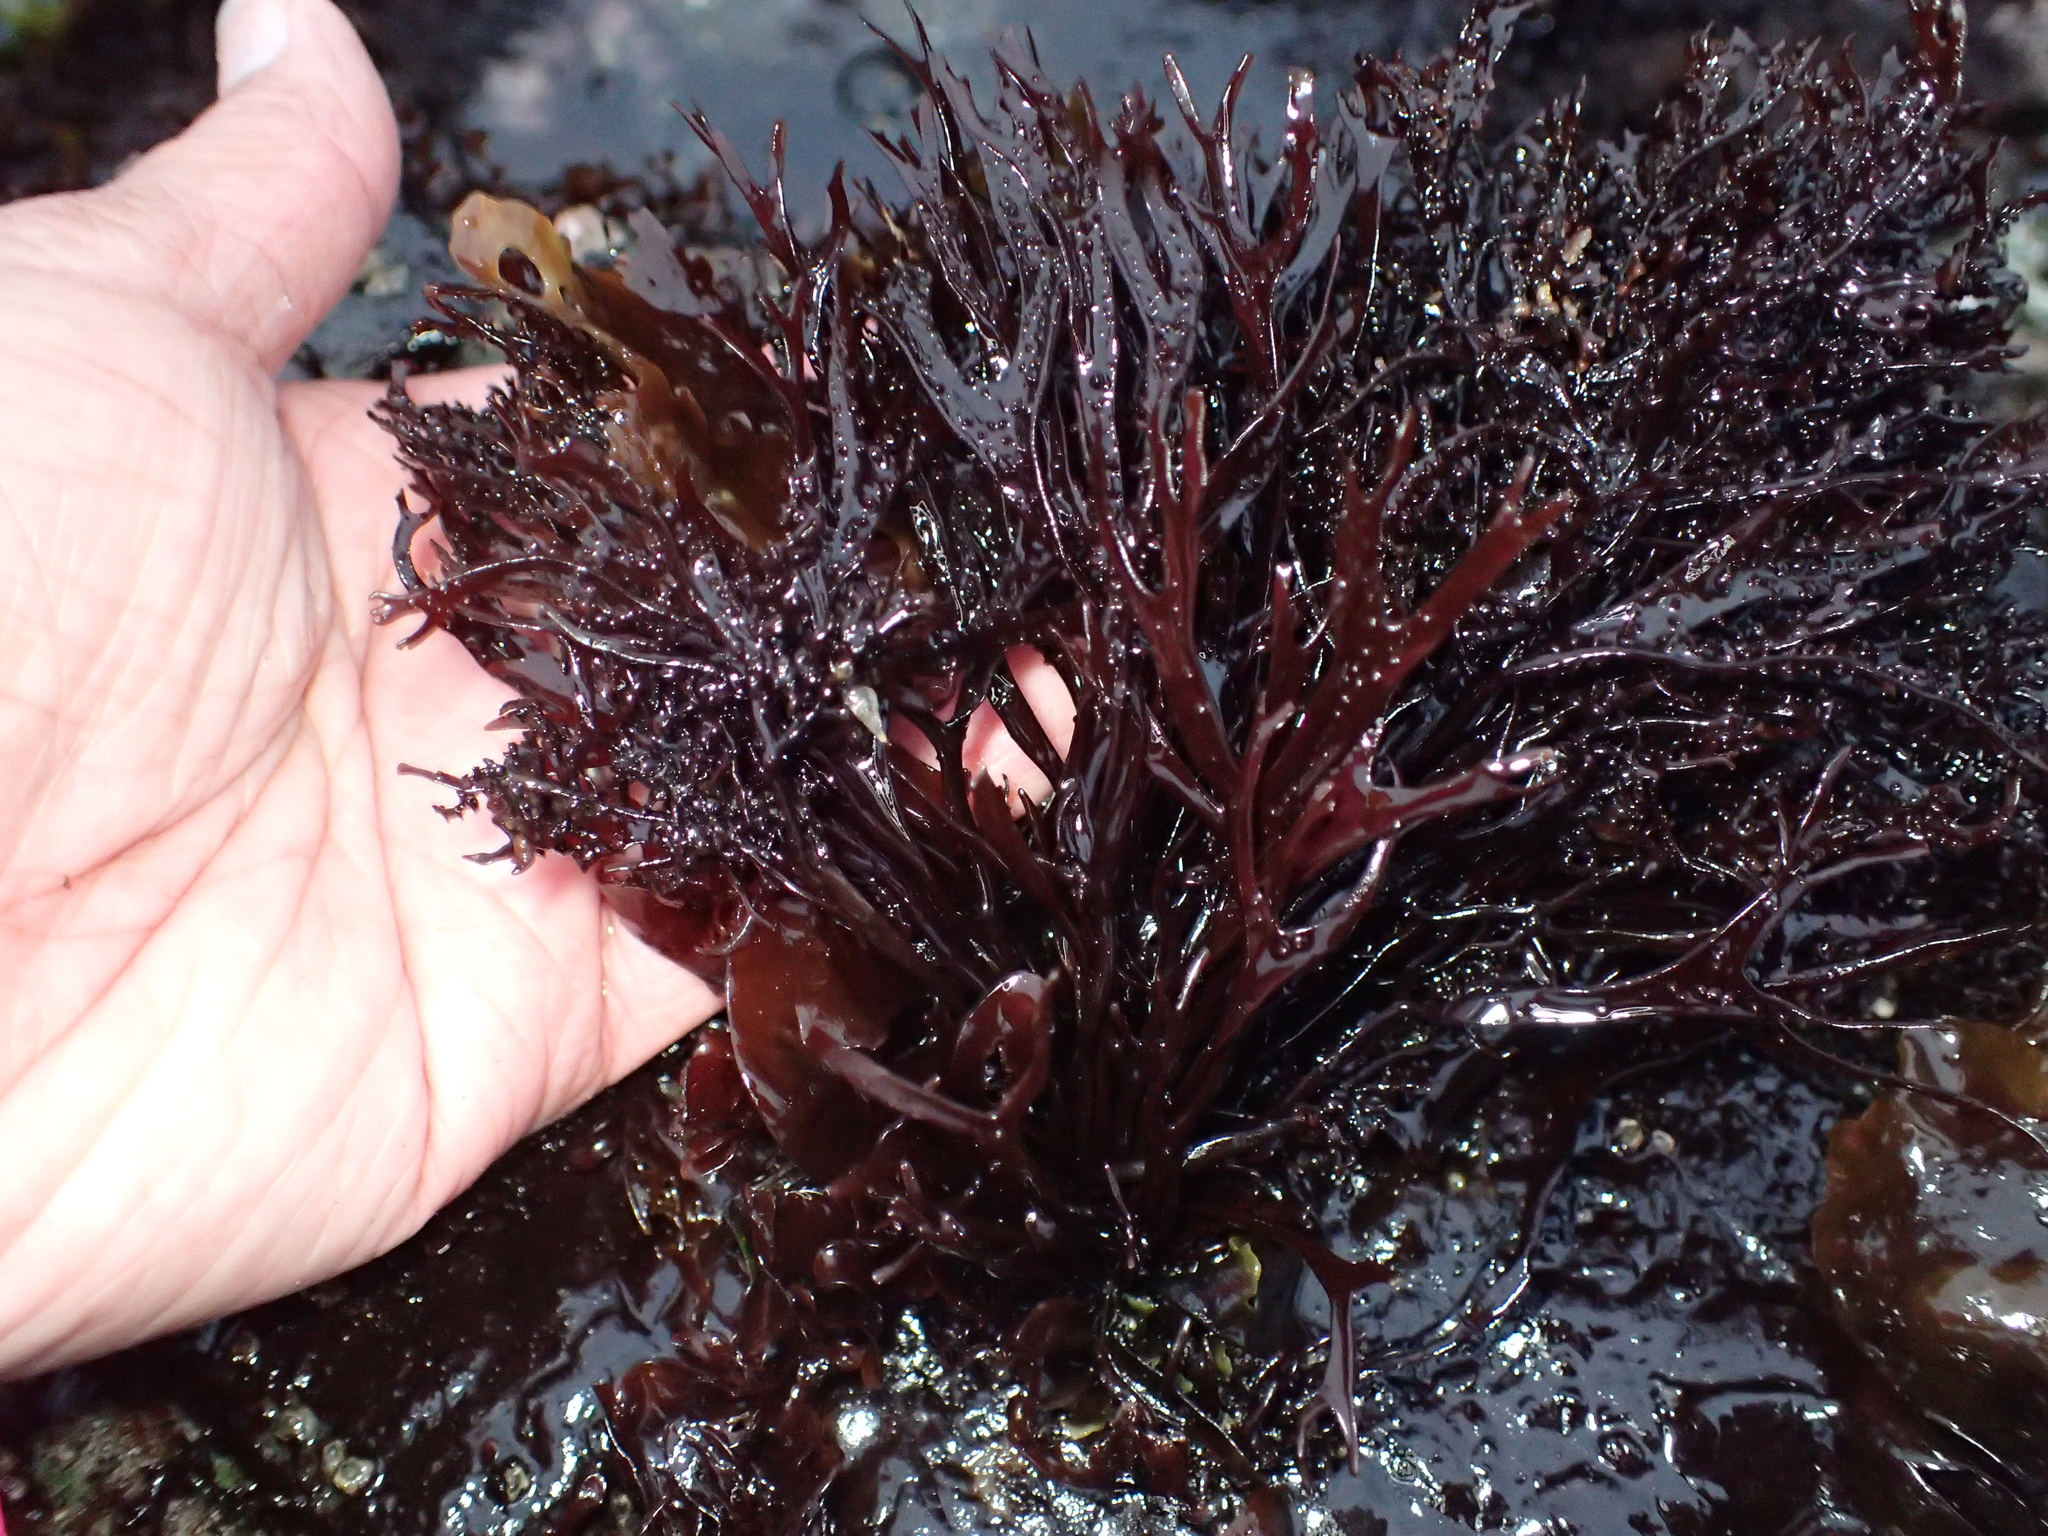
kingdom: Plantae
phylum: Rhodophyta
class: Florideophyceae
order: Gigartinales
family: Phyllophoraceae
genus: Mastocarpus
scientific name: Mastocarpus jardinii
